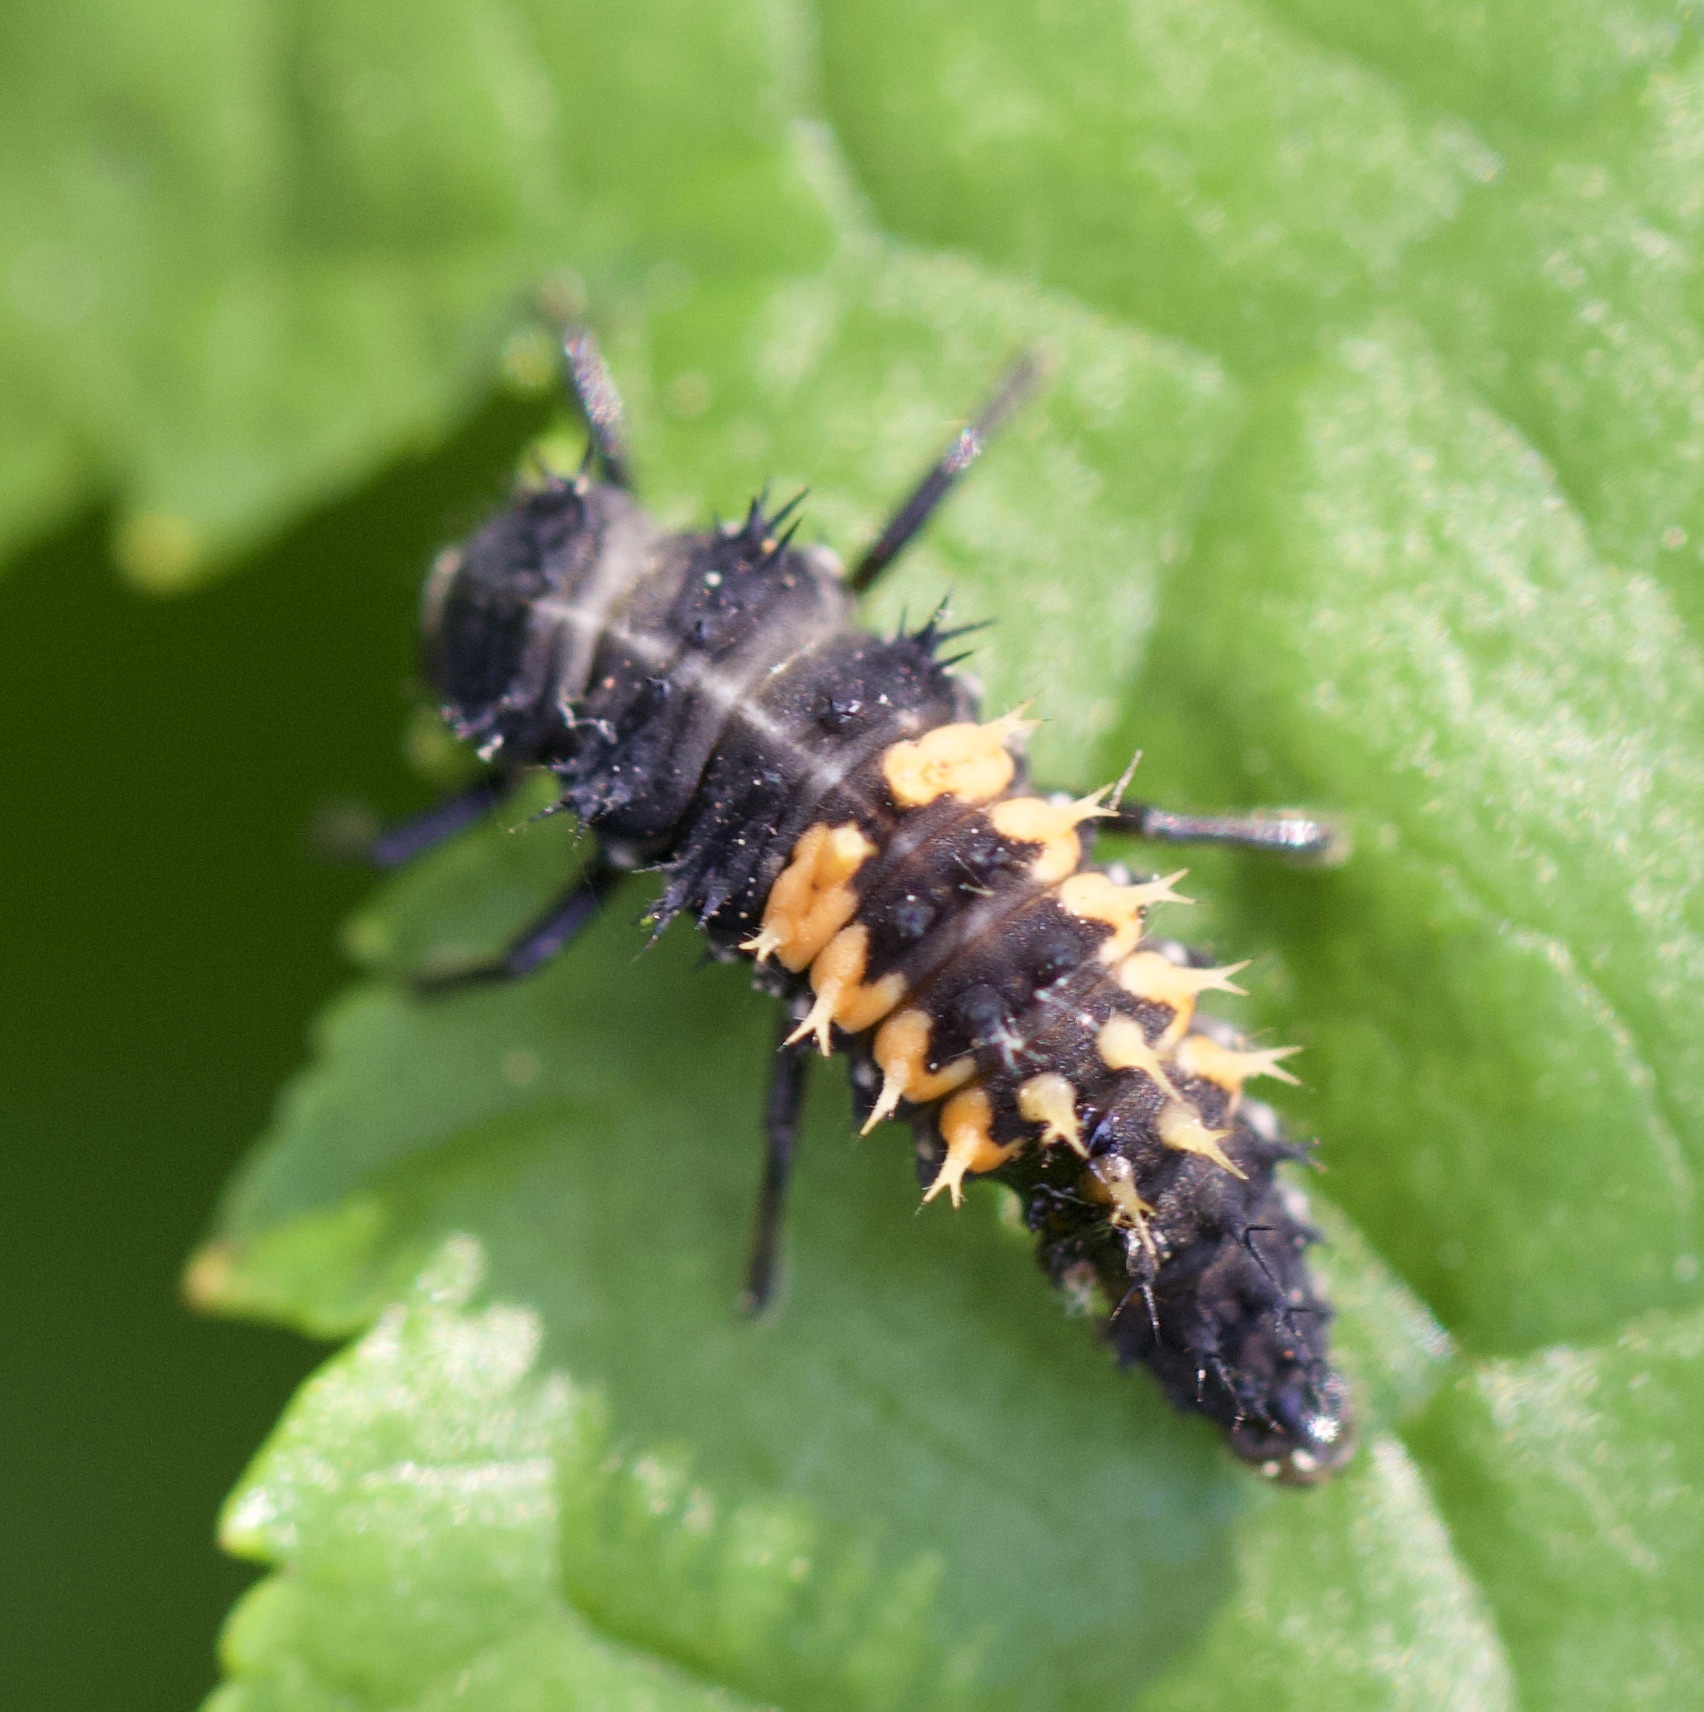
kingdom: Animalia
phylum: Arthropoda
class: Insecta
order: Coleoptera
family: Coccinellidae
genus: Harmonia
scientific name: Harmonia axyridis
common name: Harlequin ladybird
